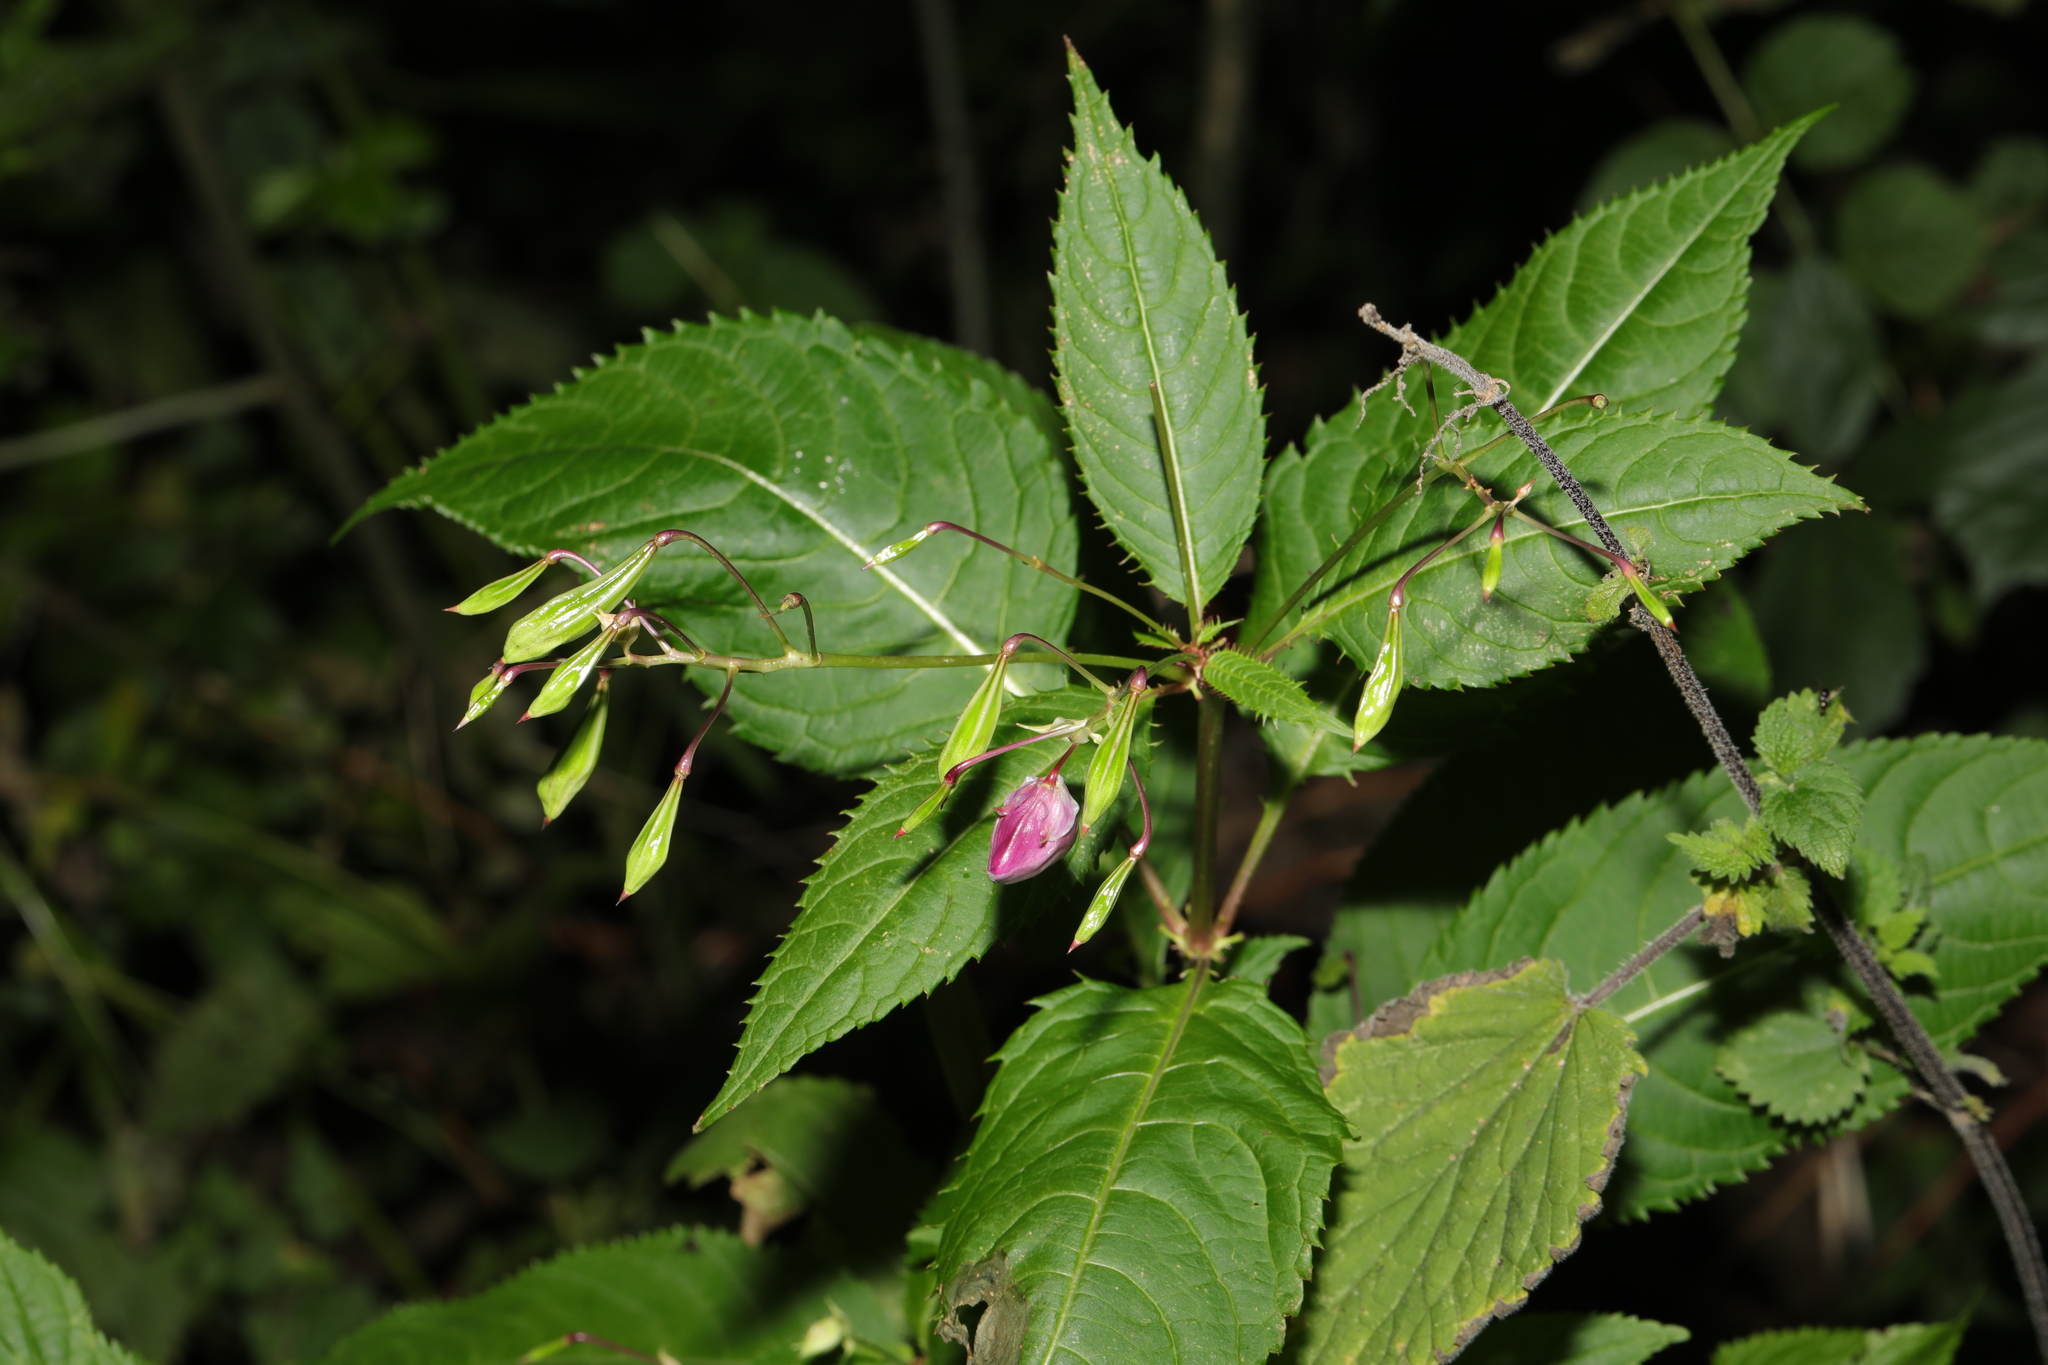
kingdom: Plantae
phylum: Tracheophyta
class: Magnoliopsida
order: Ericales
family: Balsaminaceae
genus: Impatiens
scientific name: Impatiens glandulifera
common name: Himalayan balsam
